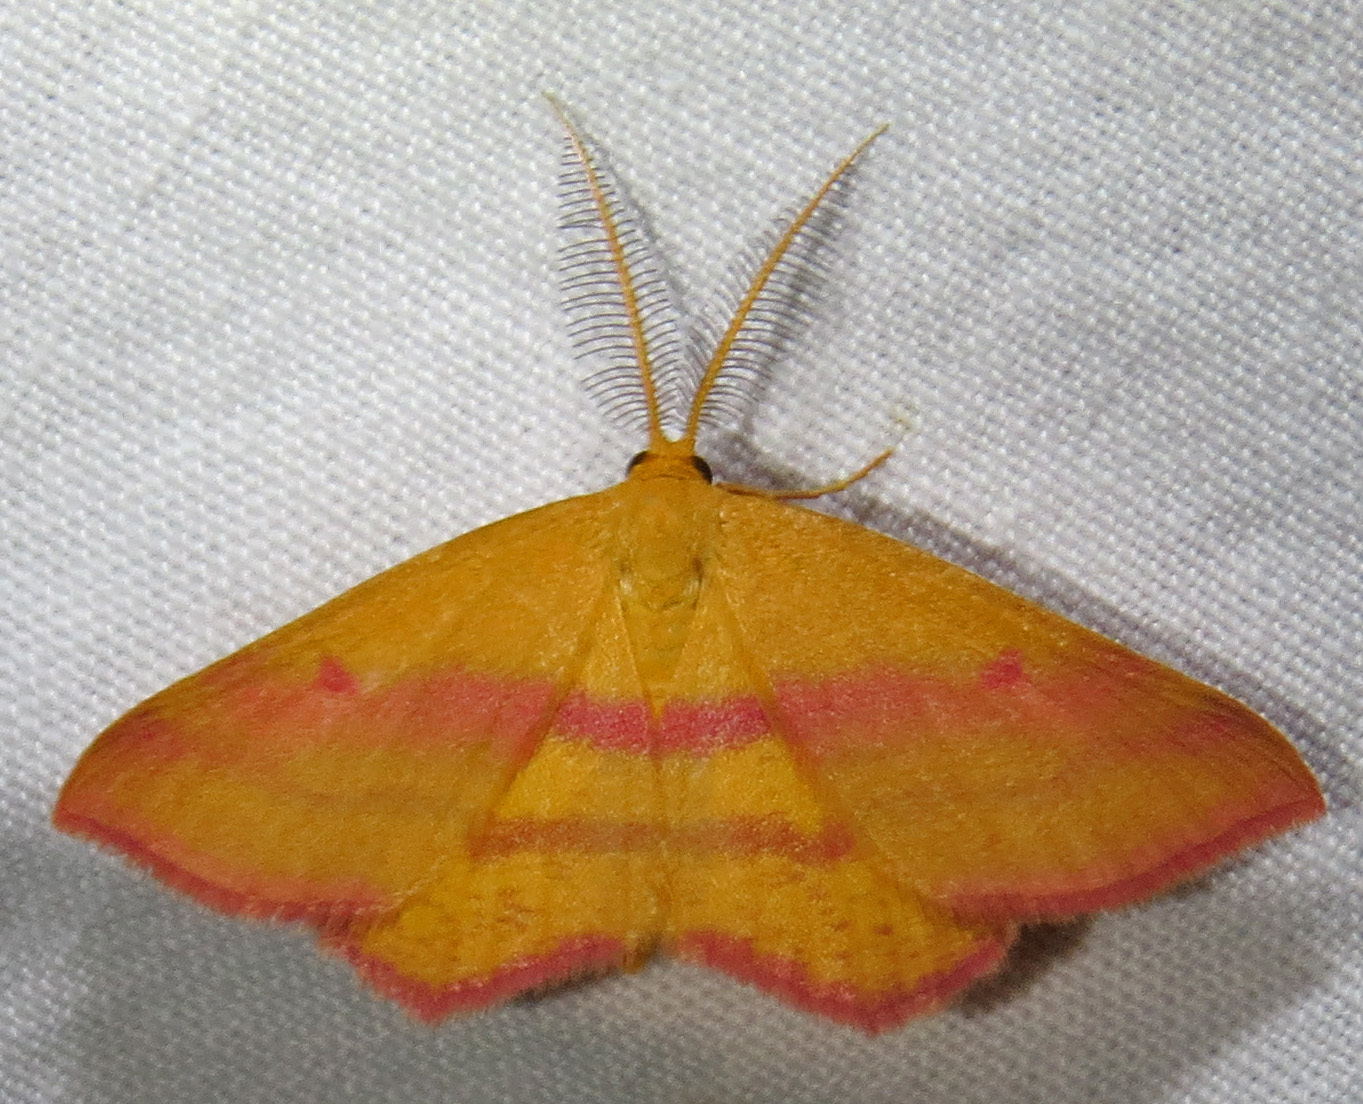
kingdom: Animalia
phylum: Arthropoda
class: Insecta
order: Lepidoptera
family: Geometridae
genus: Haematopis
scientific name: Haematopis grataria
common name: Chickweed geometer
